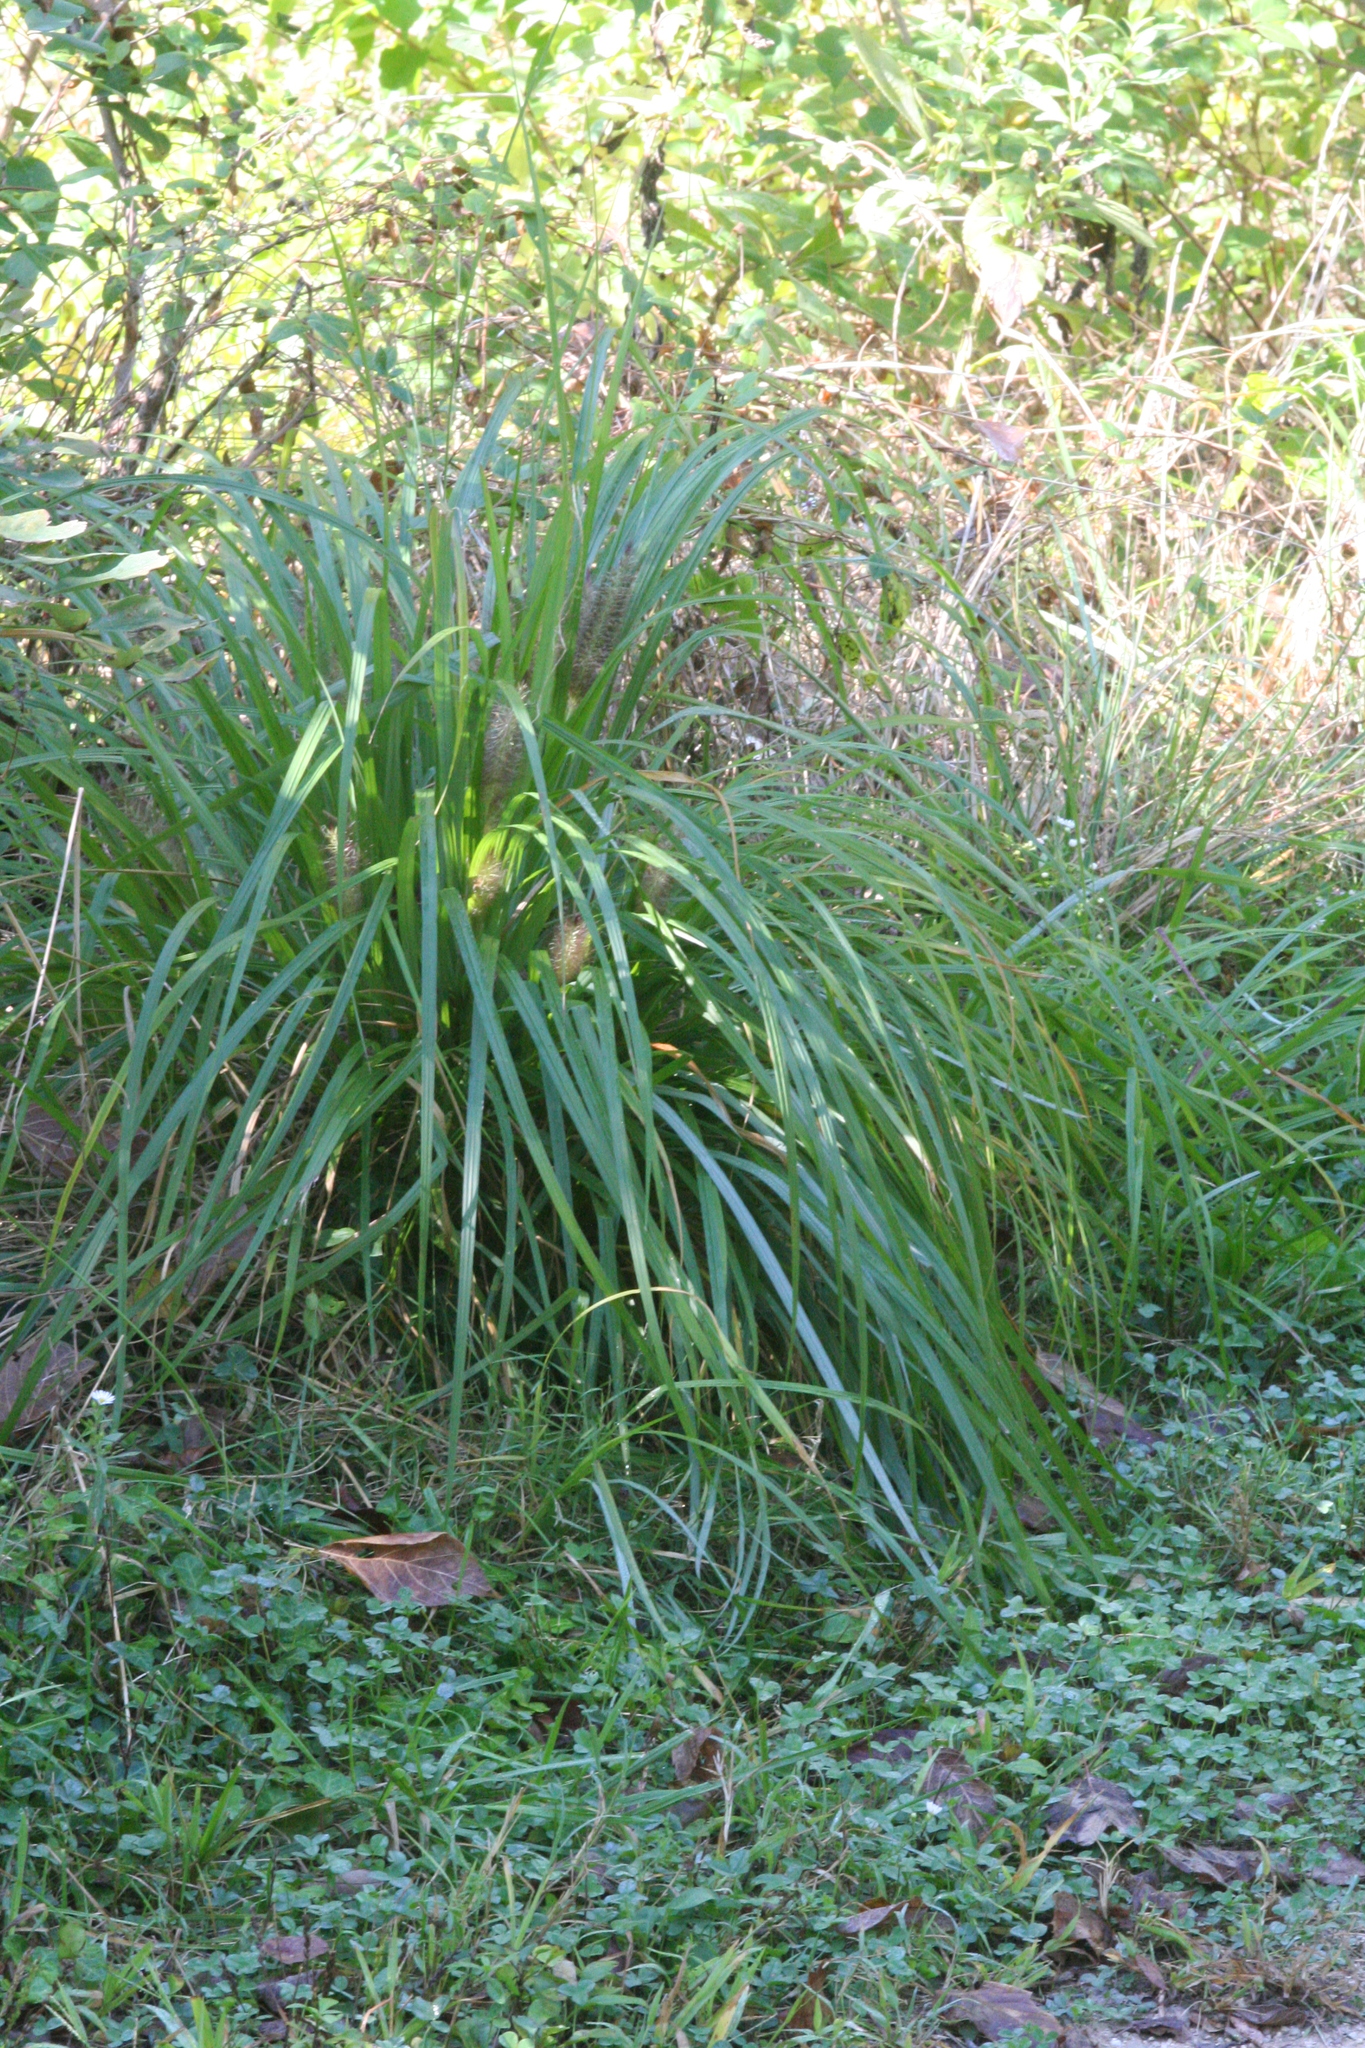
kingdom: Plantae
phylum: Tracheophyta
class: Liliopsida
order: Poales
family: Poaceae
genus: Cenchrus
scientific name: Cenchrus alopecuroides
